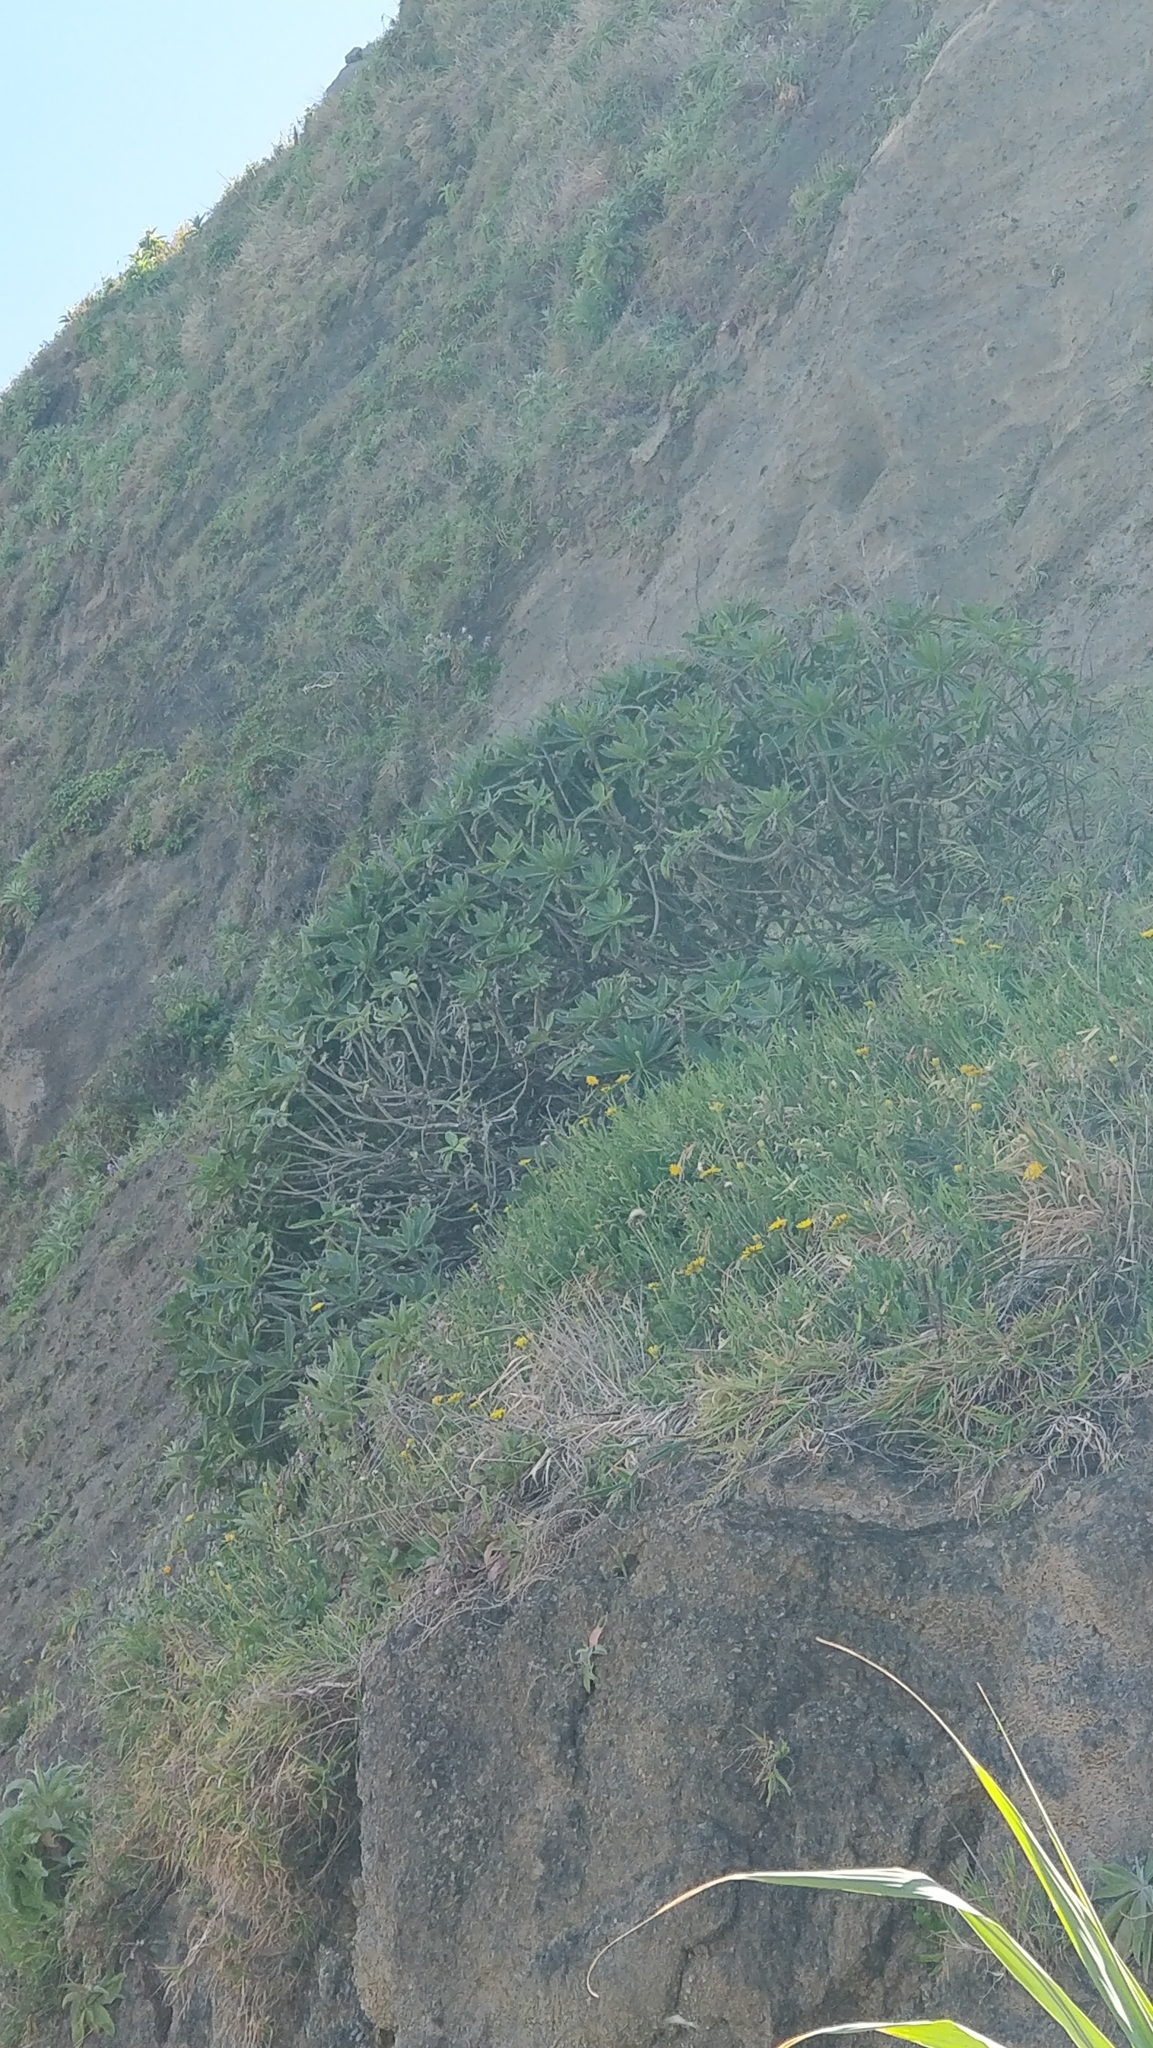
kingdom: Plantae
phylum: Tracheophyta
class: Magnoliopsida
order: Boraginales
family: Boraginaceae
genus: Echium
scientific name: Echium nervosum
